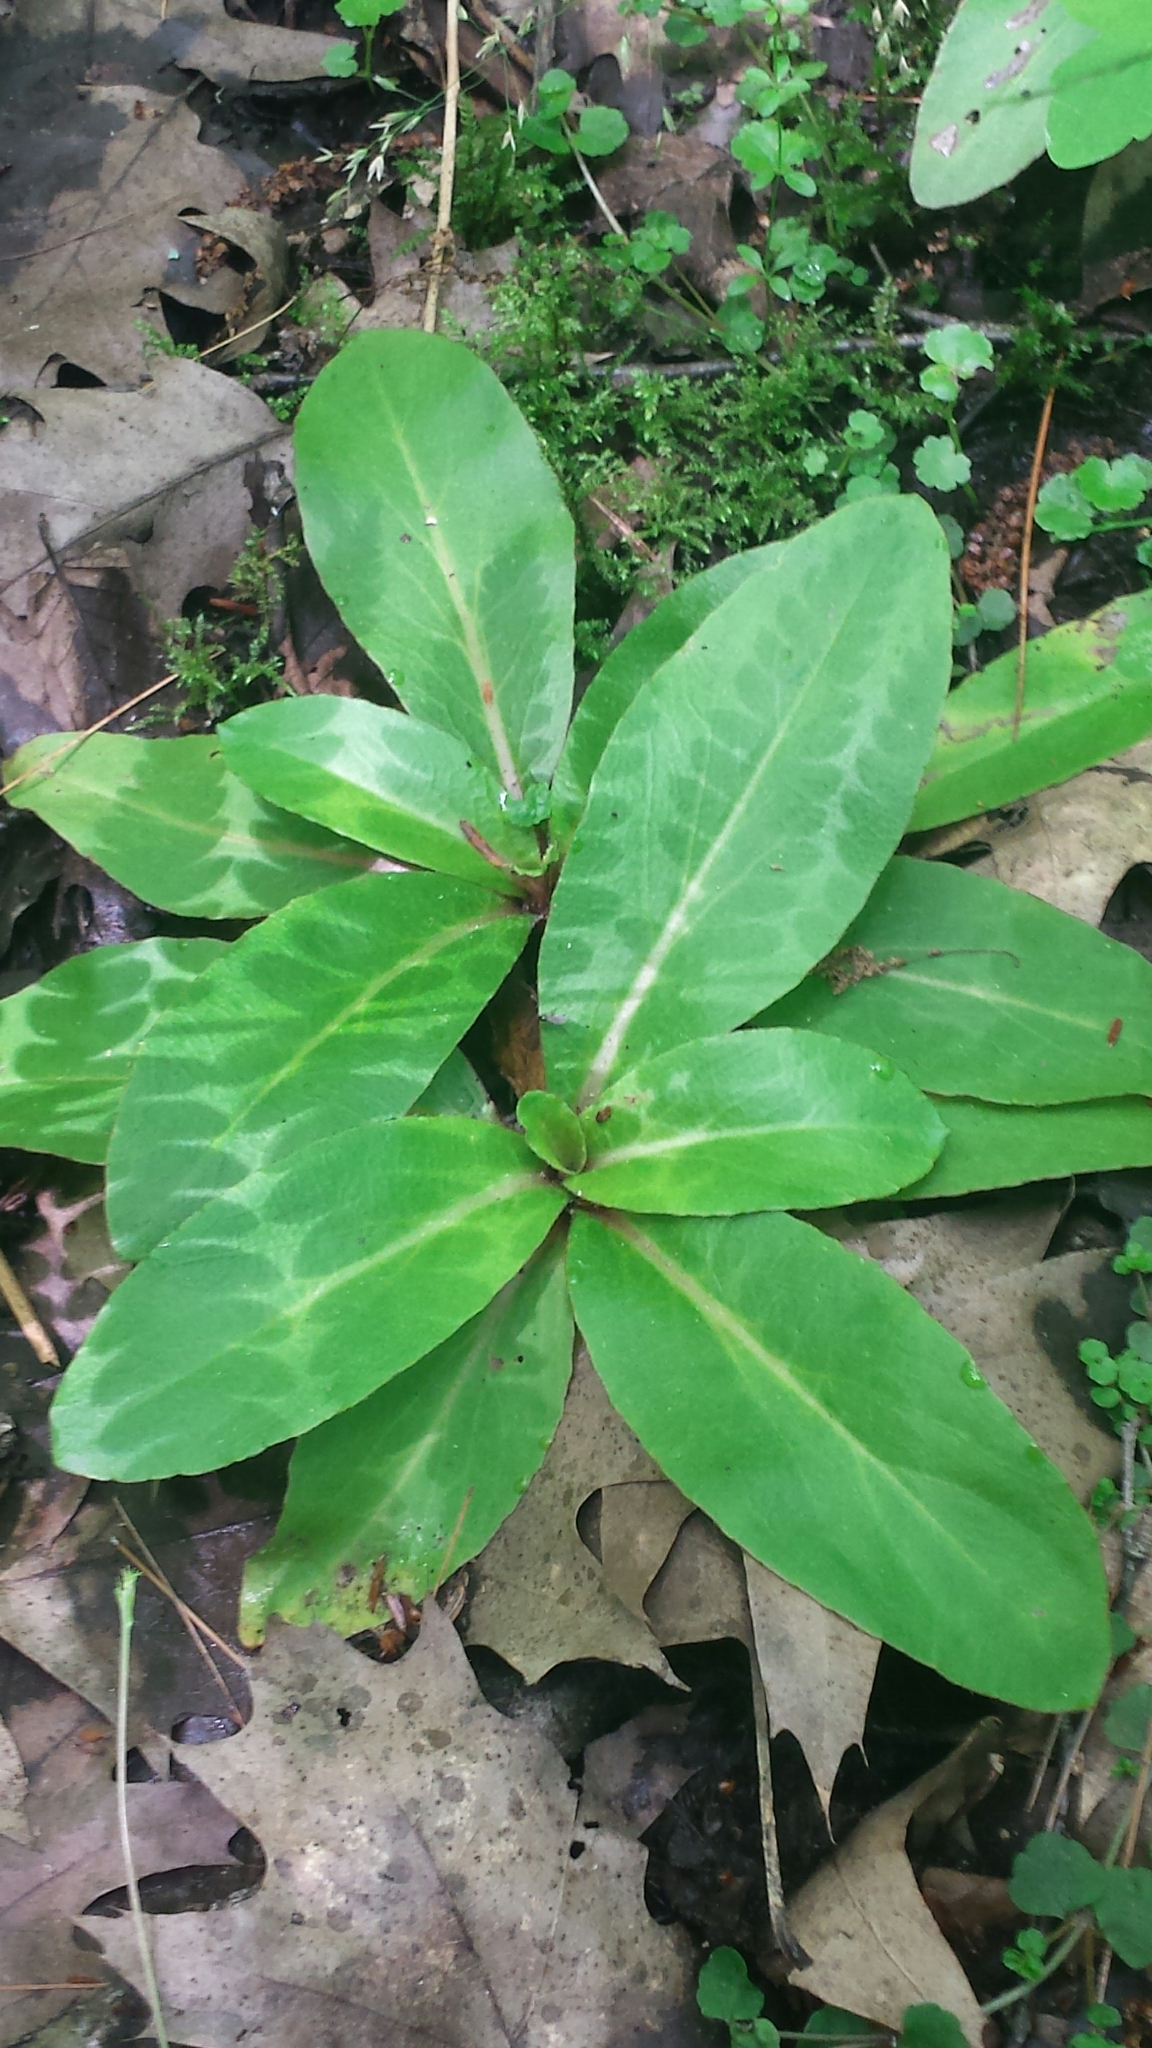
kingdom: Plantae
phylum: Tracheophyta
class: Magnoliopsida
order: Saxifragales
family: Saxifragaceae
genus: Micranthes
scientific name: Micranthes pensylvanica
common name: Marsh saxifrage
